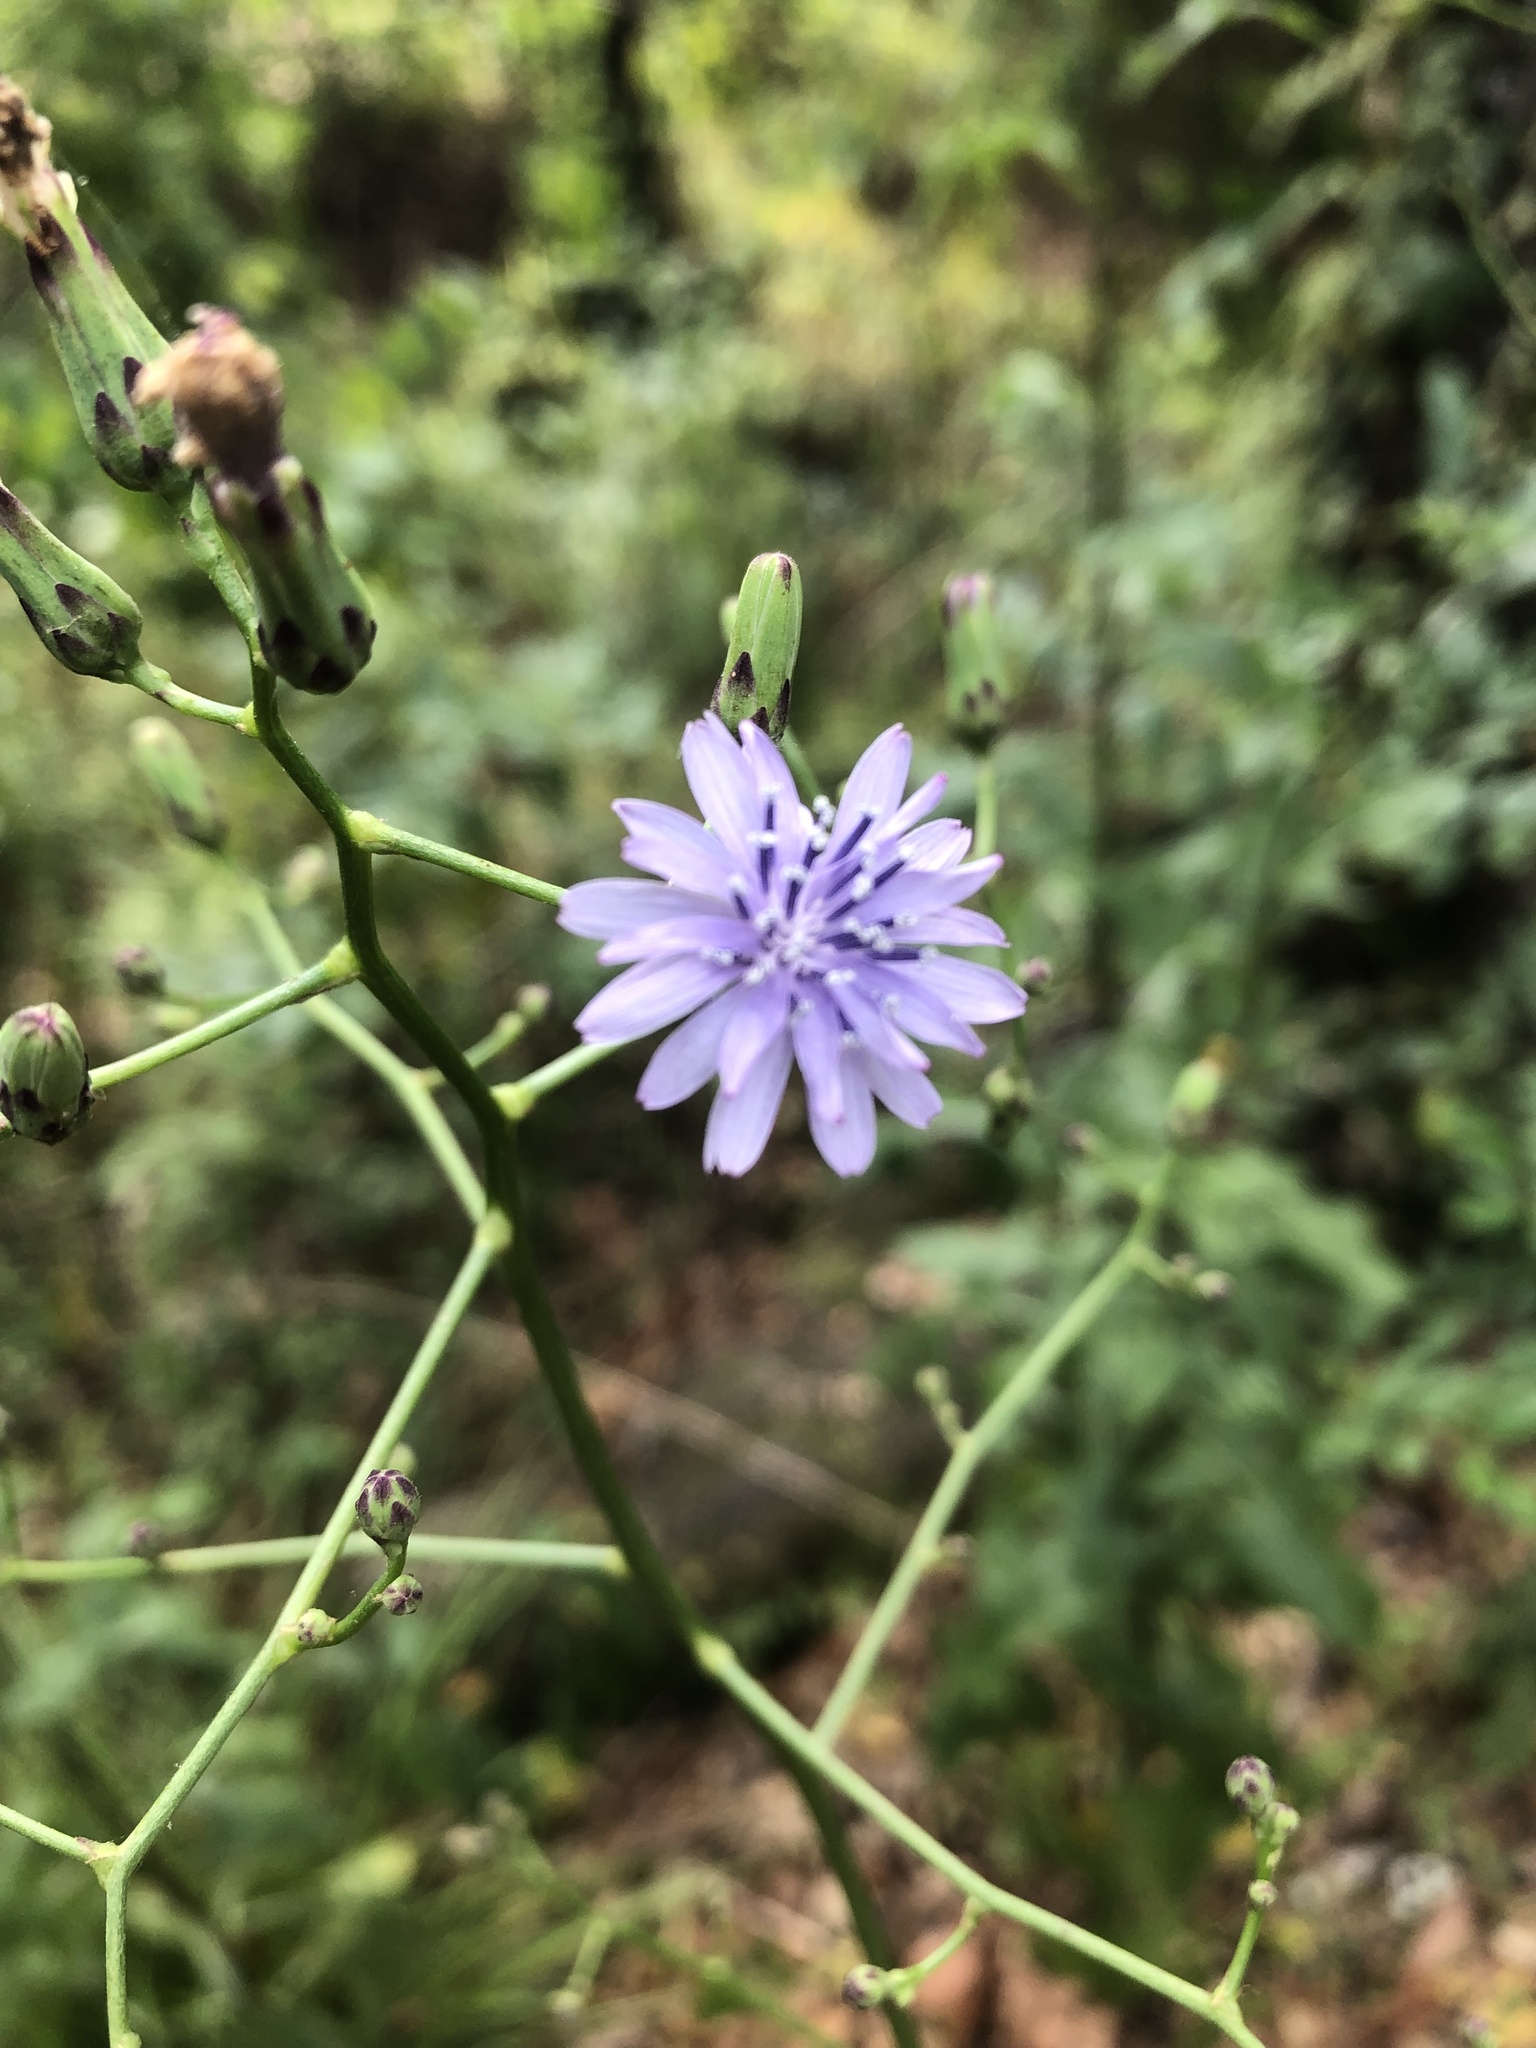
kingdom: Plantae
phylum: Tracheophyta
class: Magnoliopsida
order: Asterales
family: Asteraceae
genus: Lactuca
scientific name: Lactuca floridana
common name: Woodland lettuce
